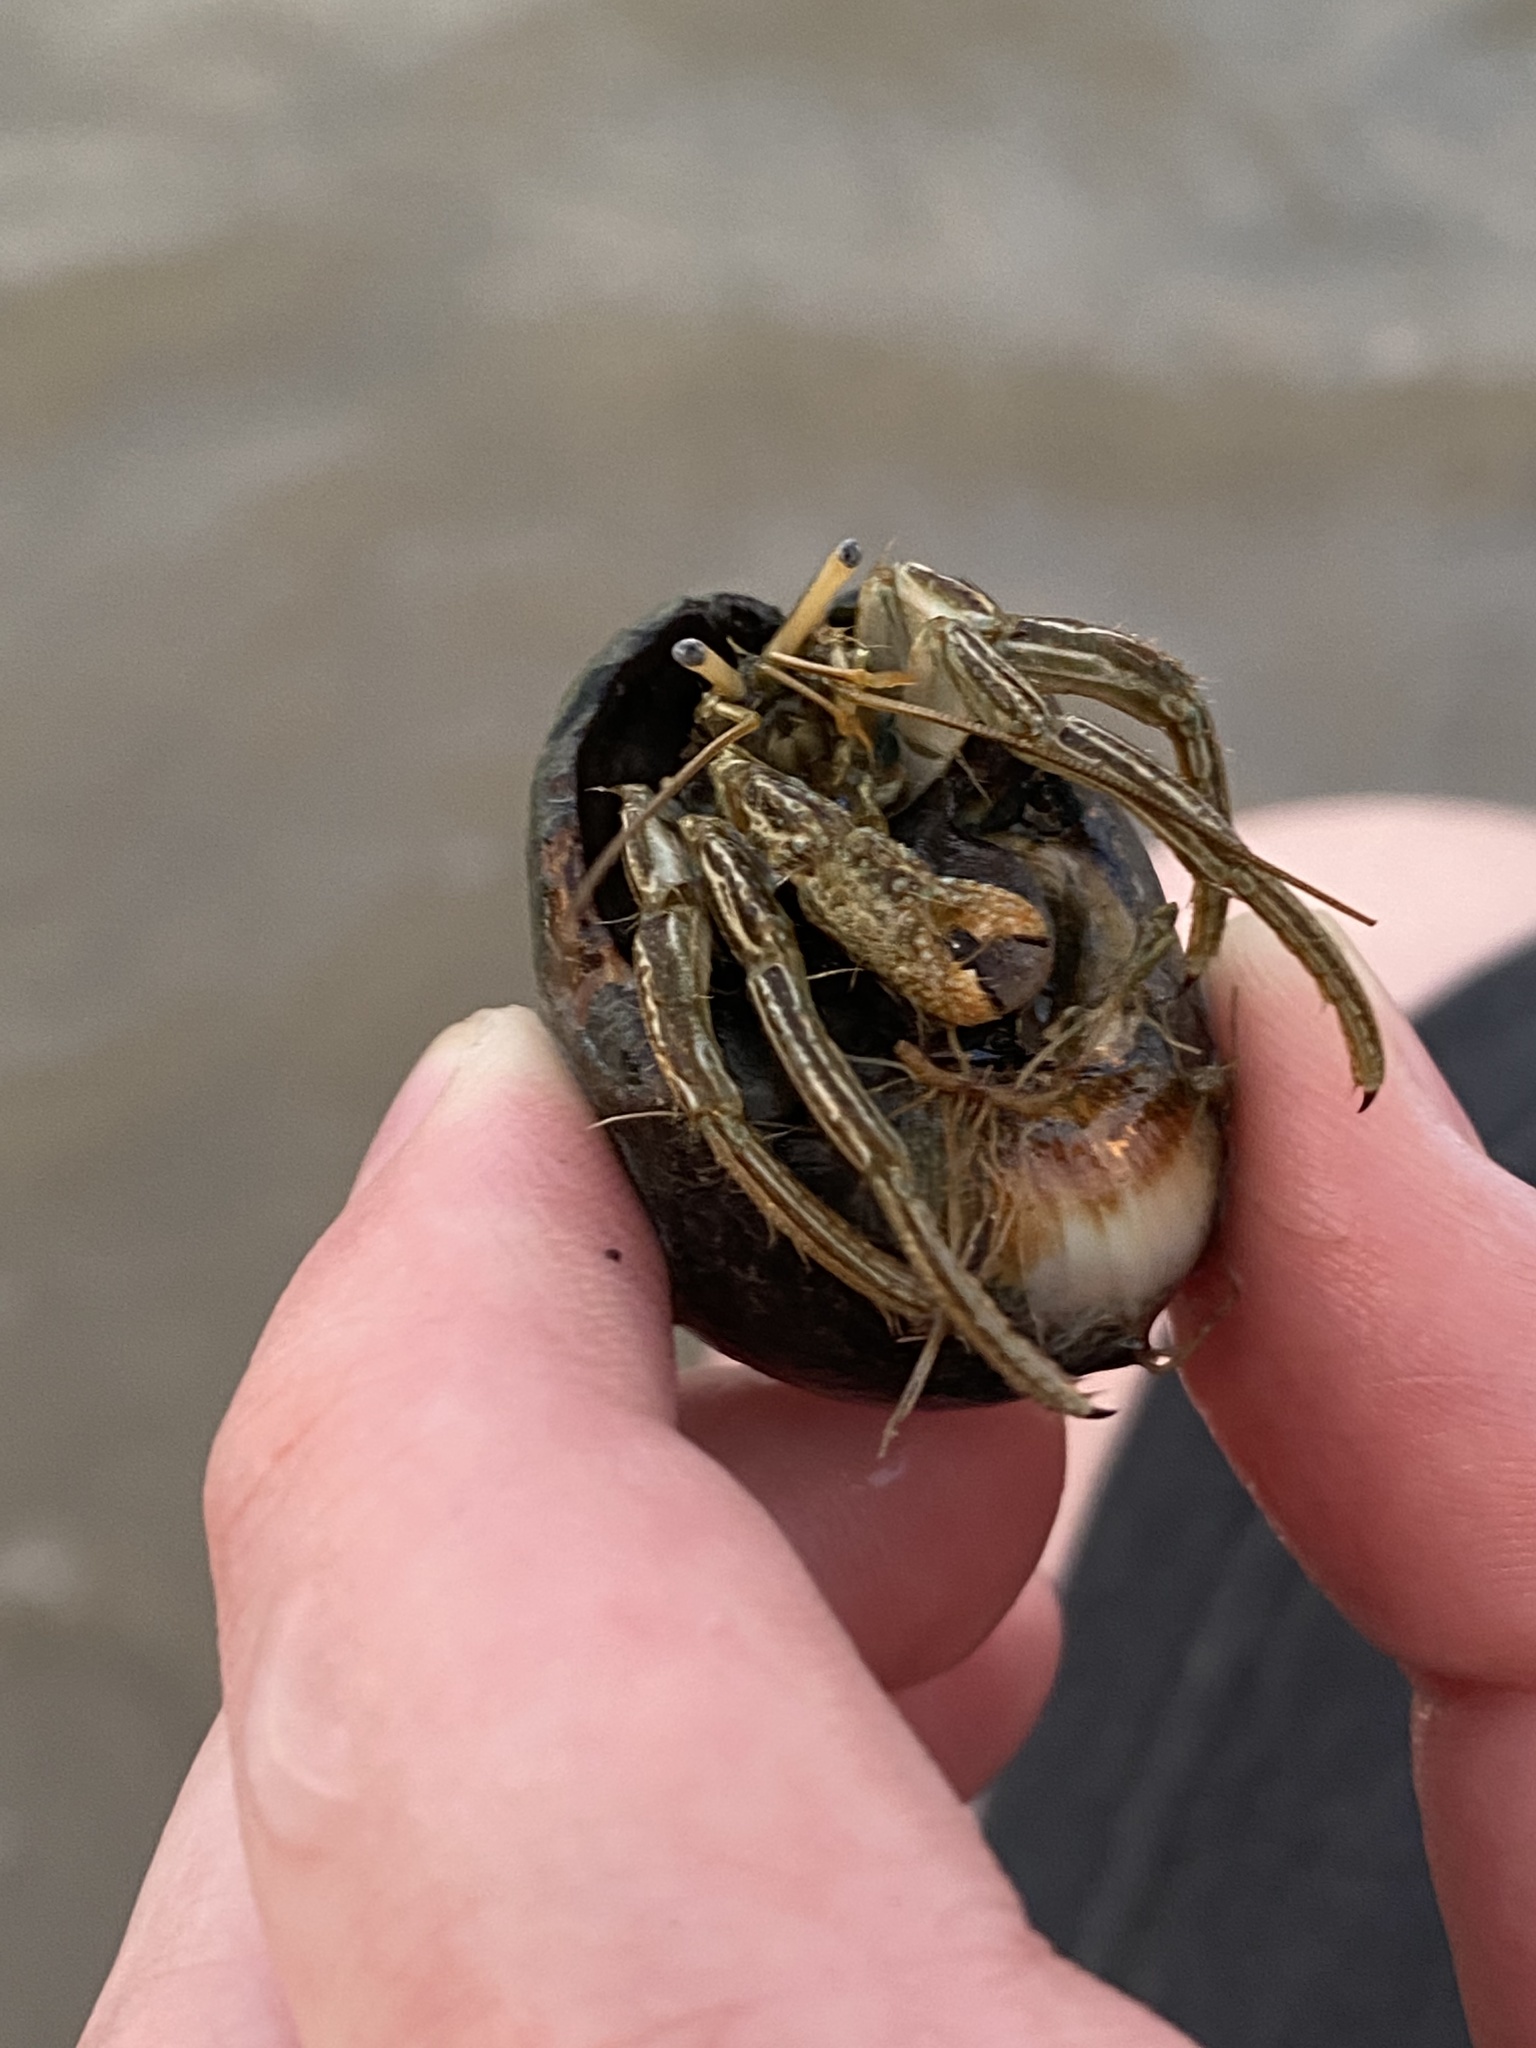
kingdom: Animalia
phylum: Arthropoda
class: Malacostraca
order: Decapoda
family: Diogenidae
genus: Clibanarius
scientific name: Clibanarius vittatus
